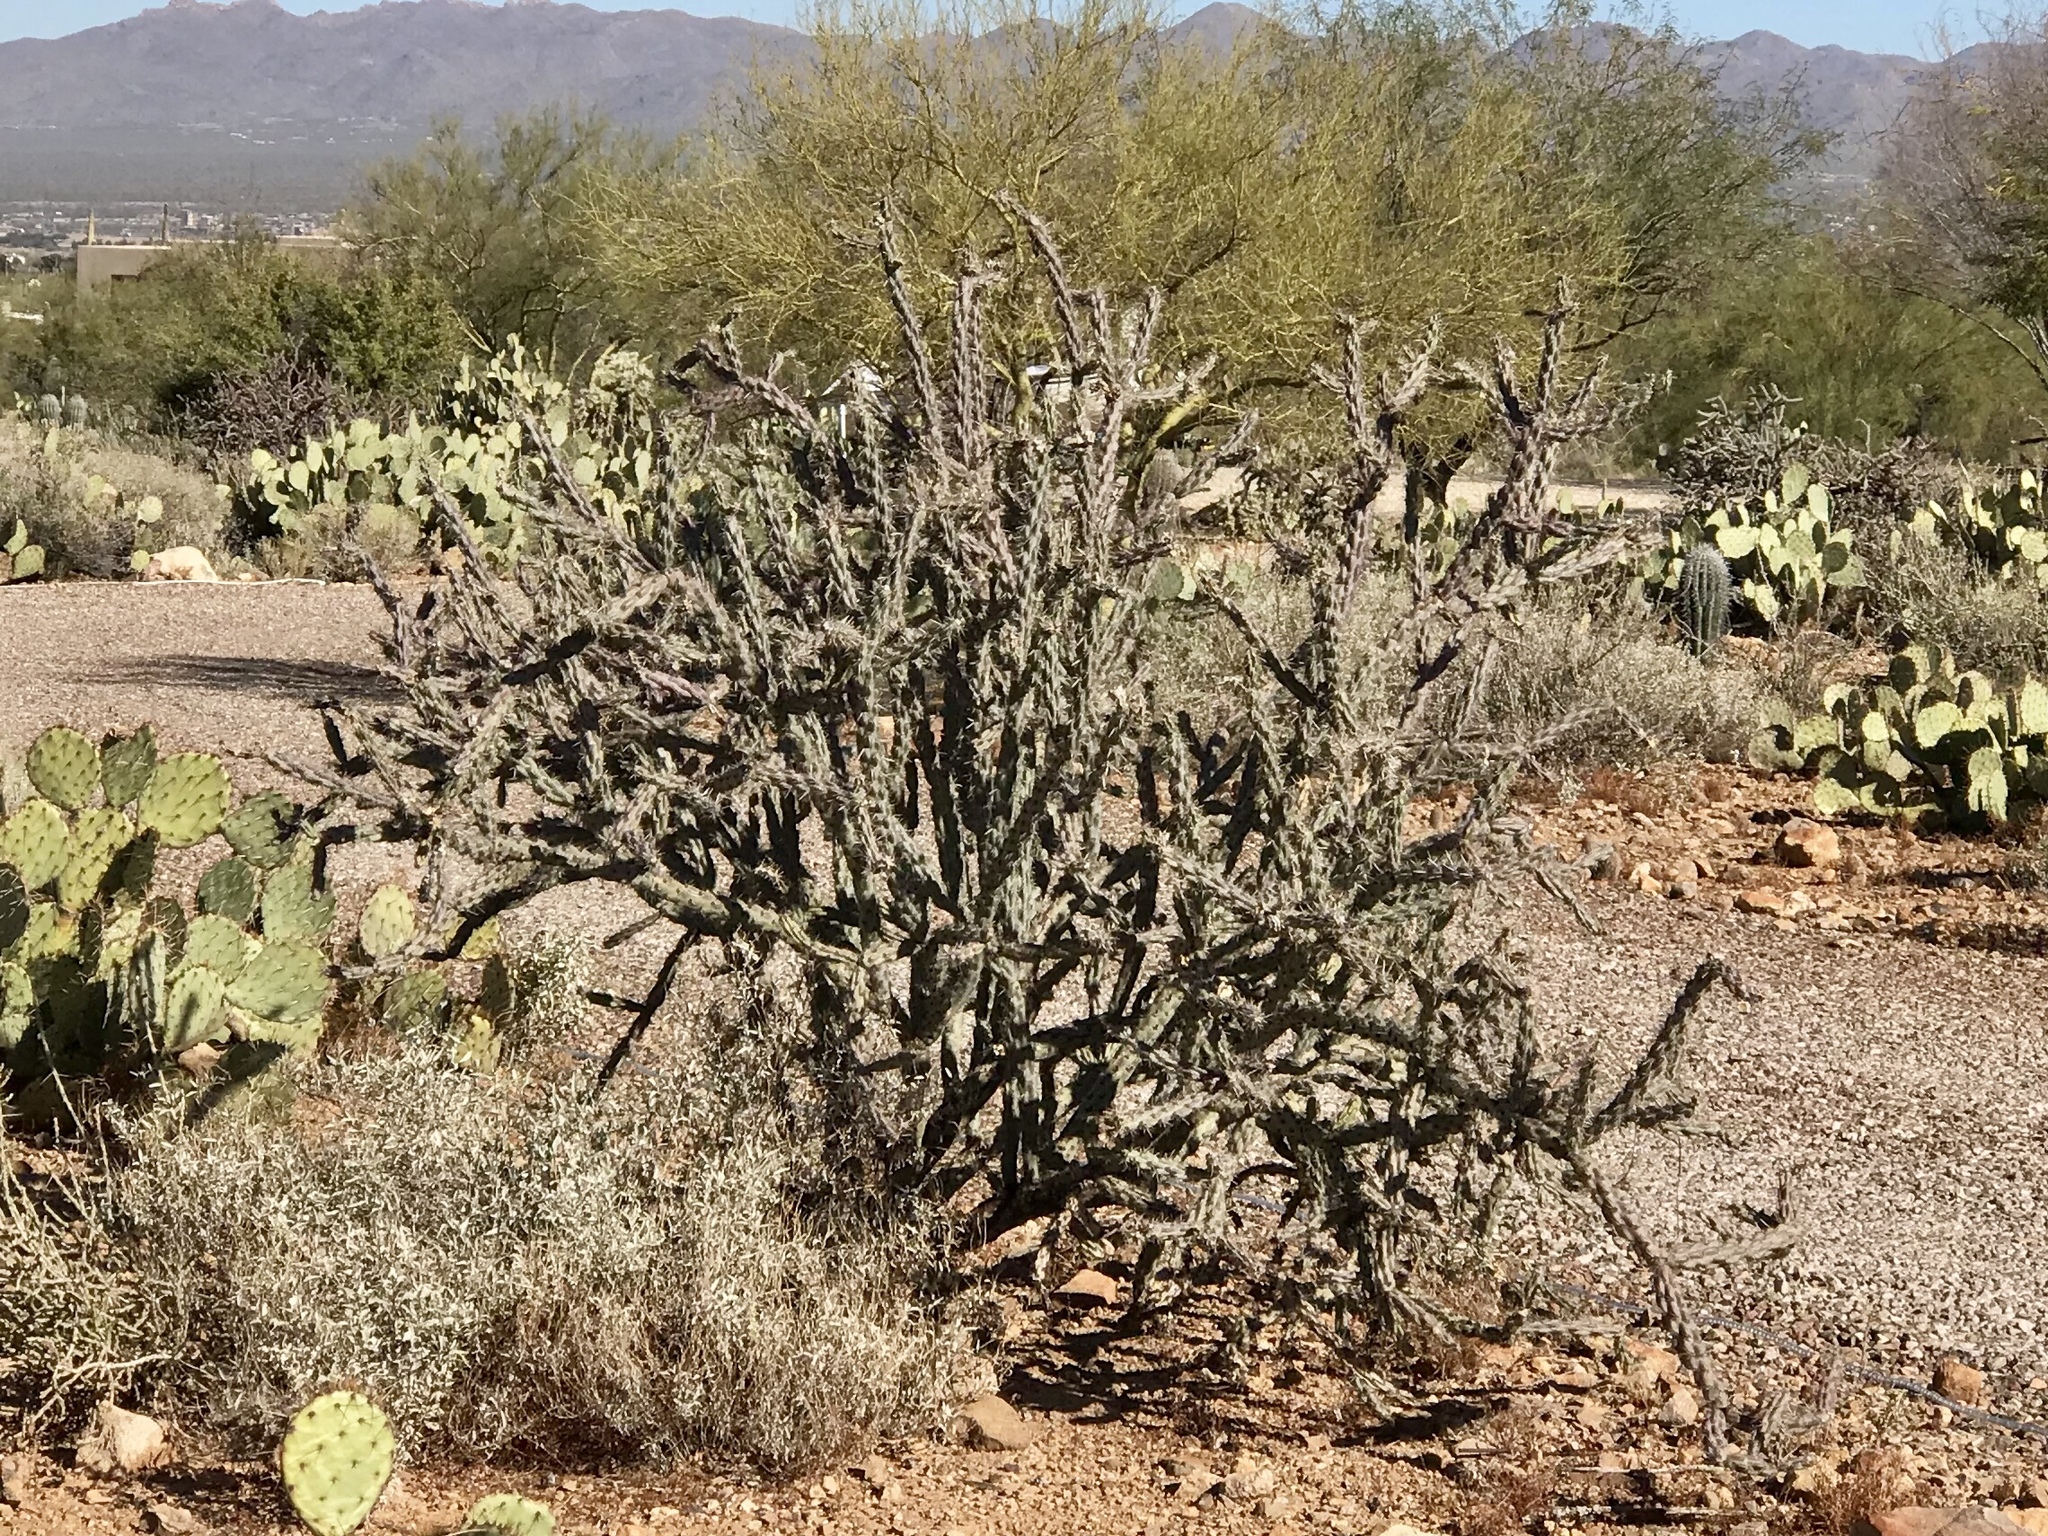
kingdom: Plantae
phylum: Tracheophyta
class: Magnoliopsida
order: Caryophyllales
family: Cactaceae
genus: Cylindropuntia
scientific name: Cylindropuntia acanthocarpa
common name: Buckhorn cholla
